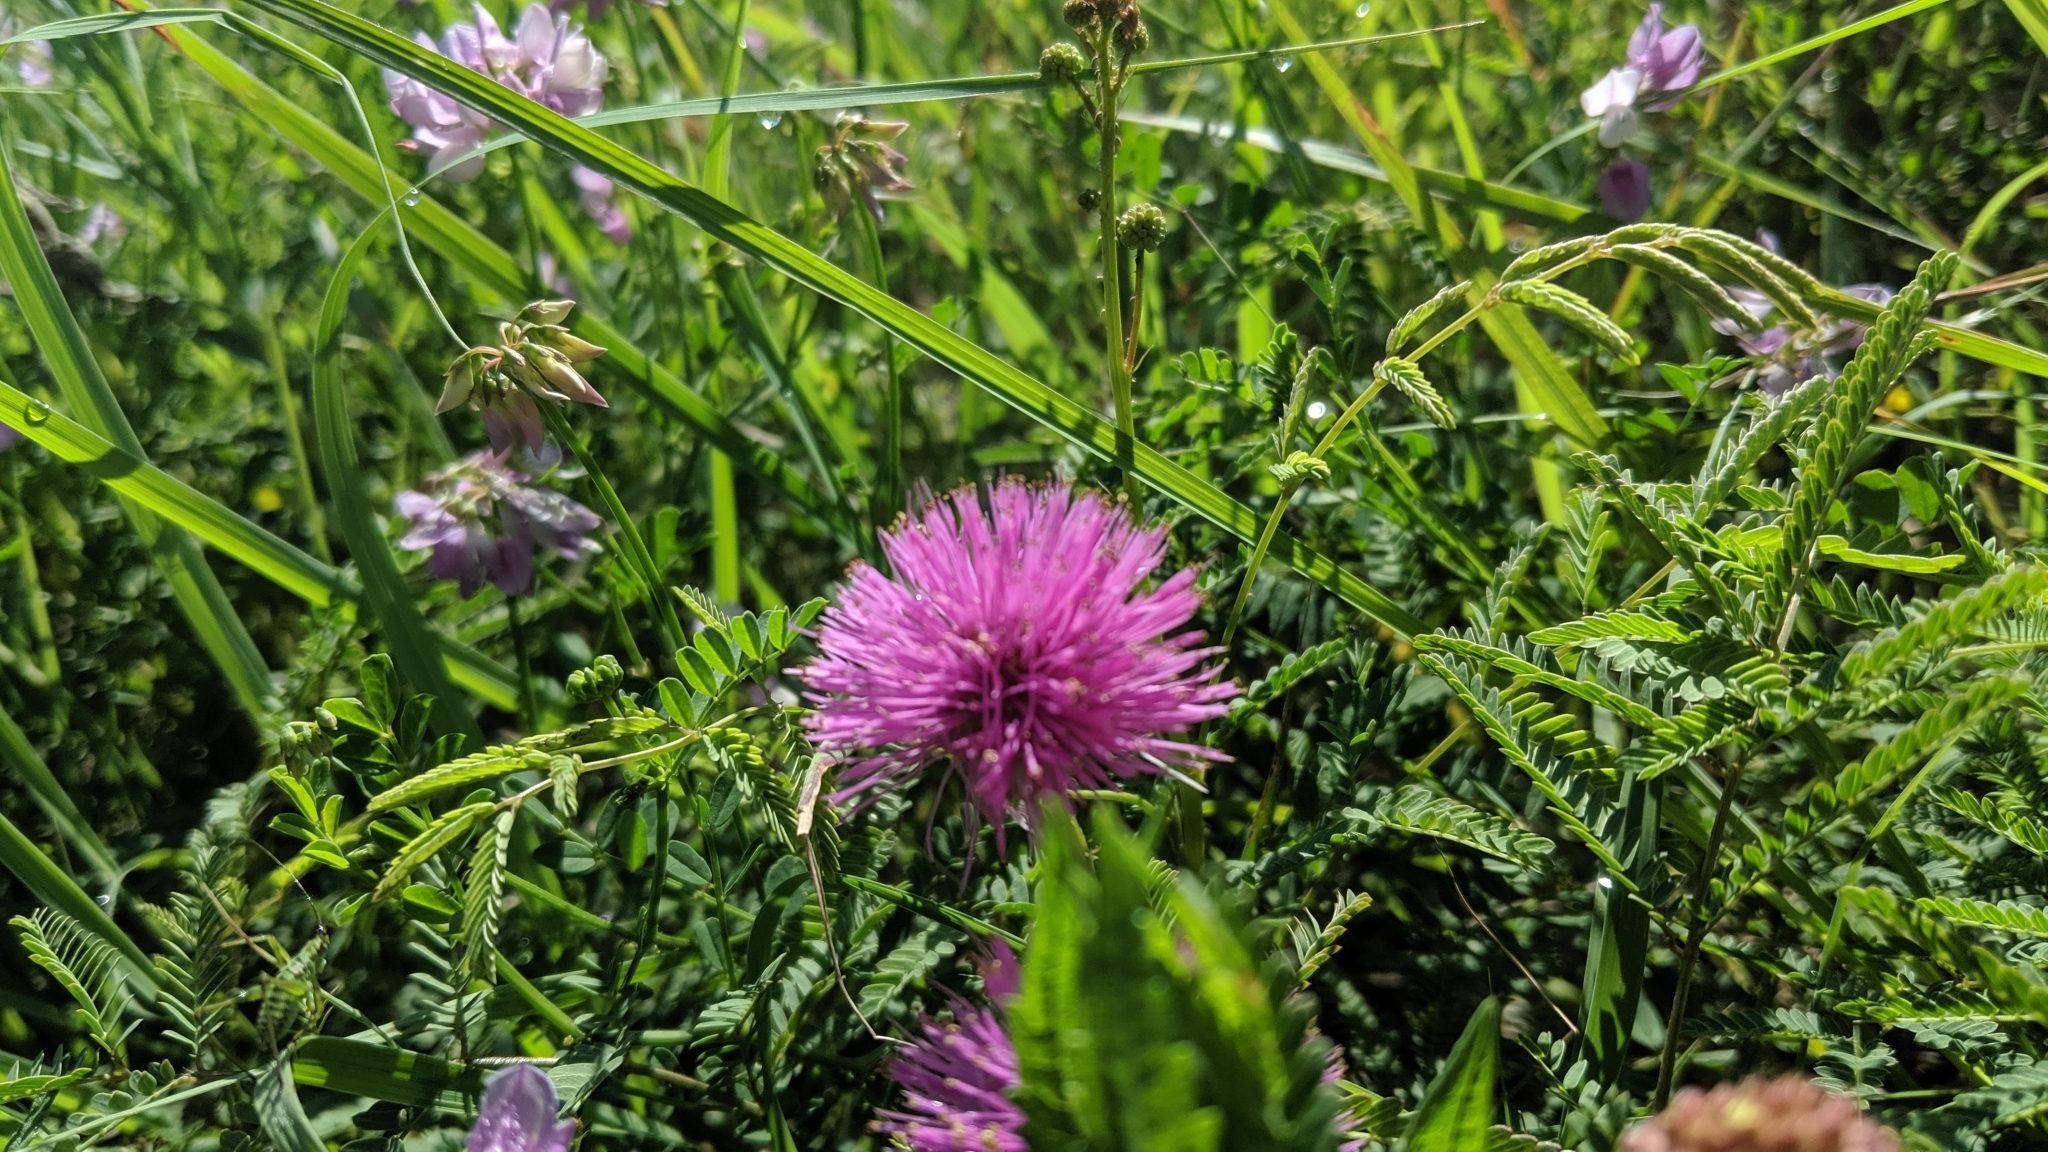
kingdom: Plantae
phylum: Tracheophyta
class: Magnoliopsida
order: Fabales
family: Fabaceae
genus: Mimosa
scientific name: Mimosa quadrivalvis
